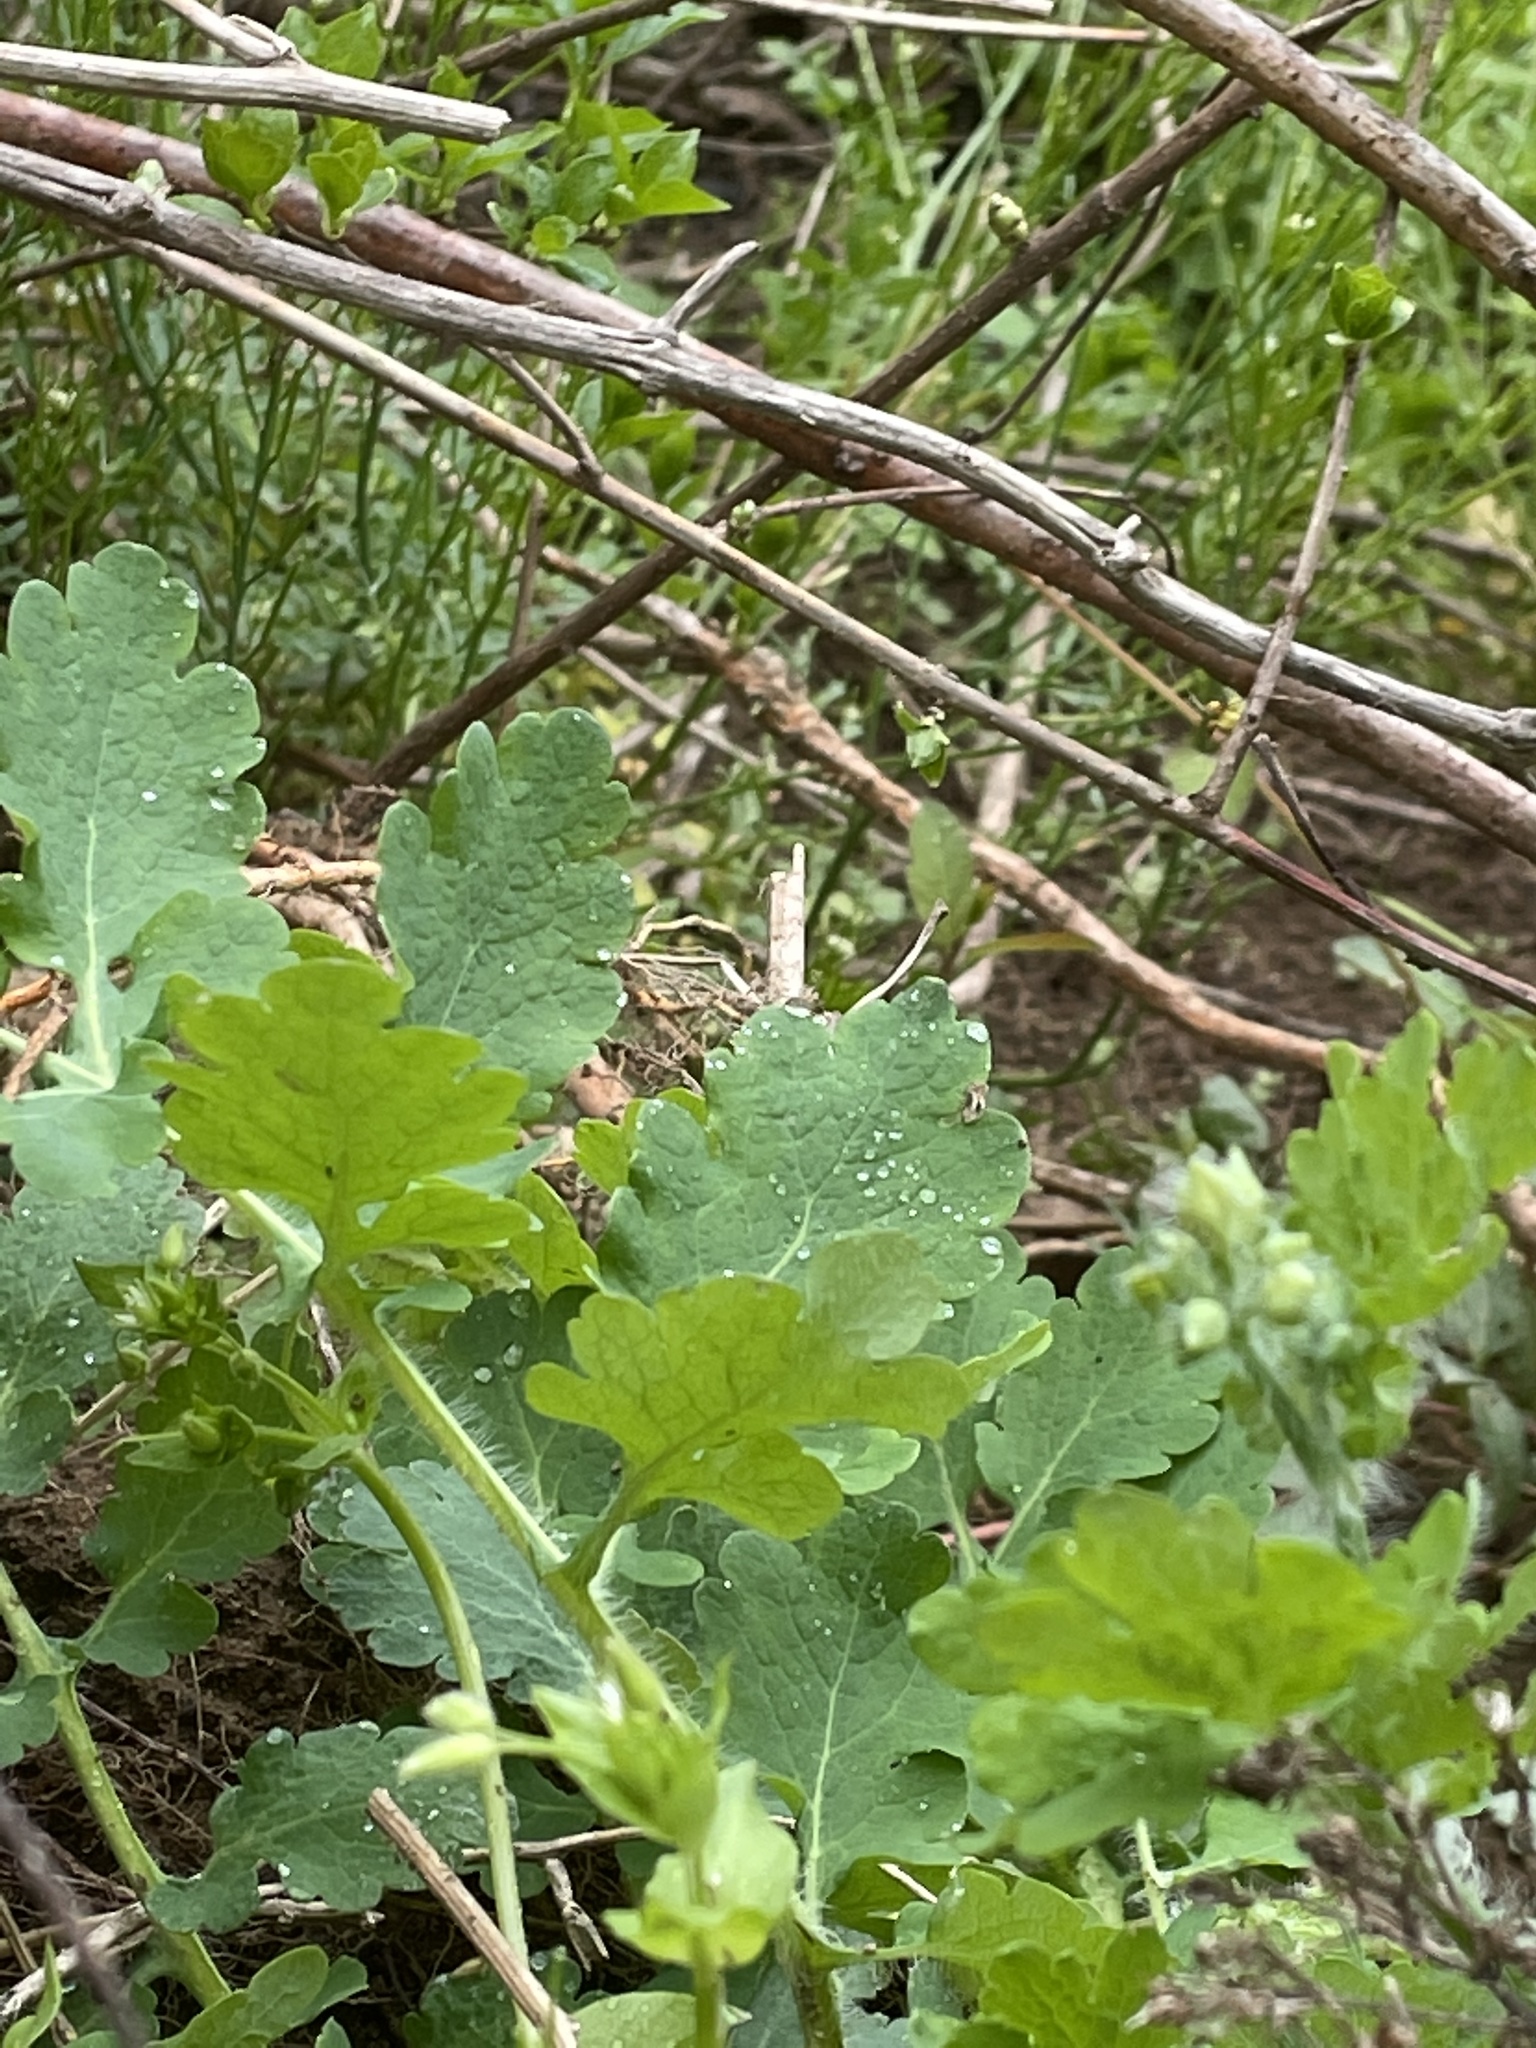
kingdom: Plantae
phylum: Tracheophyta
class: Magnoliopsida
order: Ranunculales
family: Papaveraceae
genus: Chelidonium
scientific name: Chelidonium majus
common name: Greater celandine
